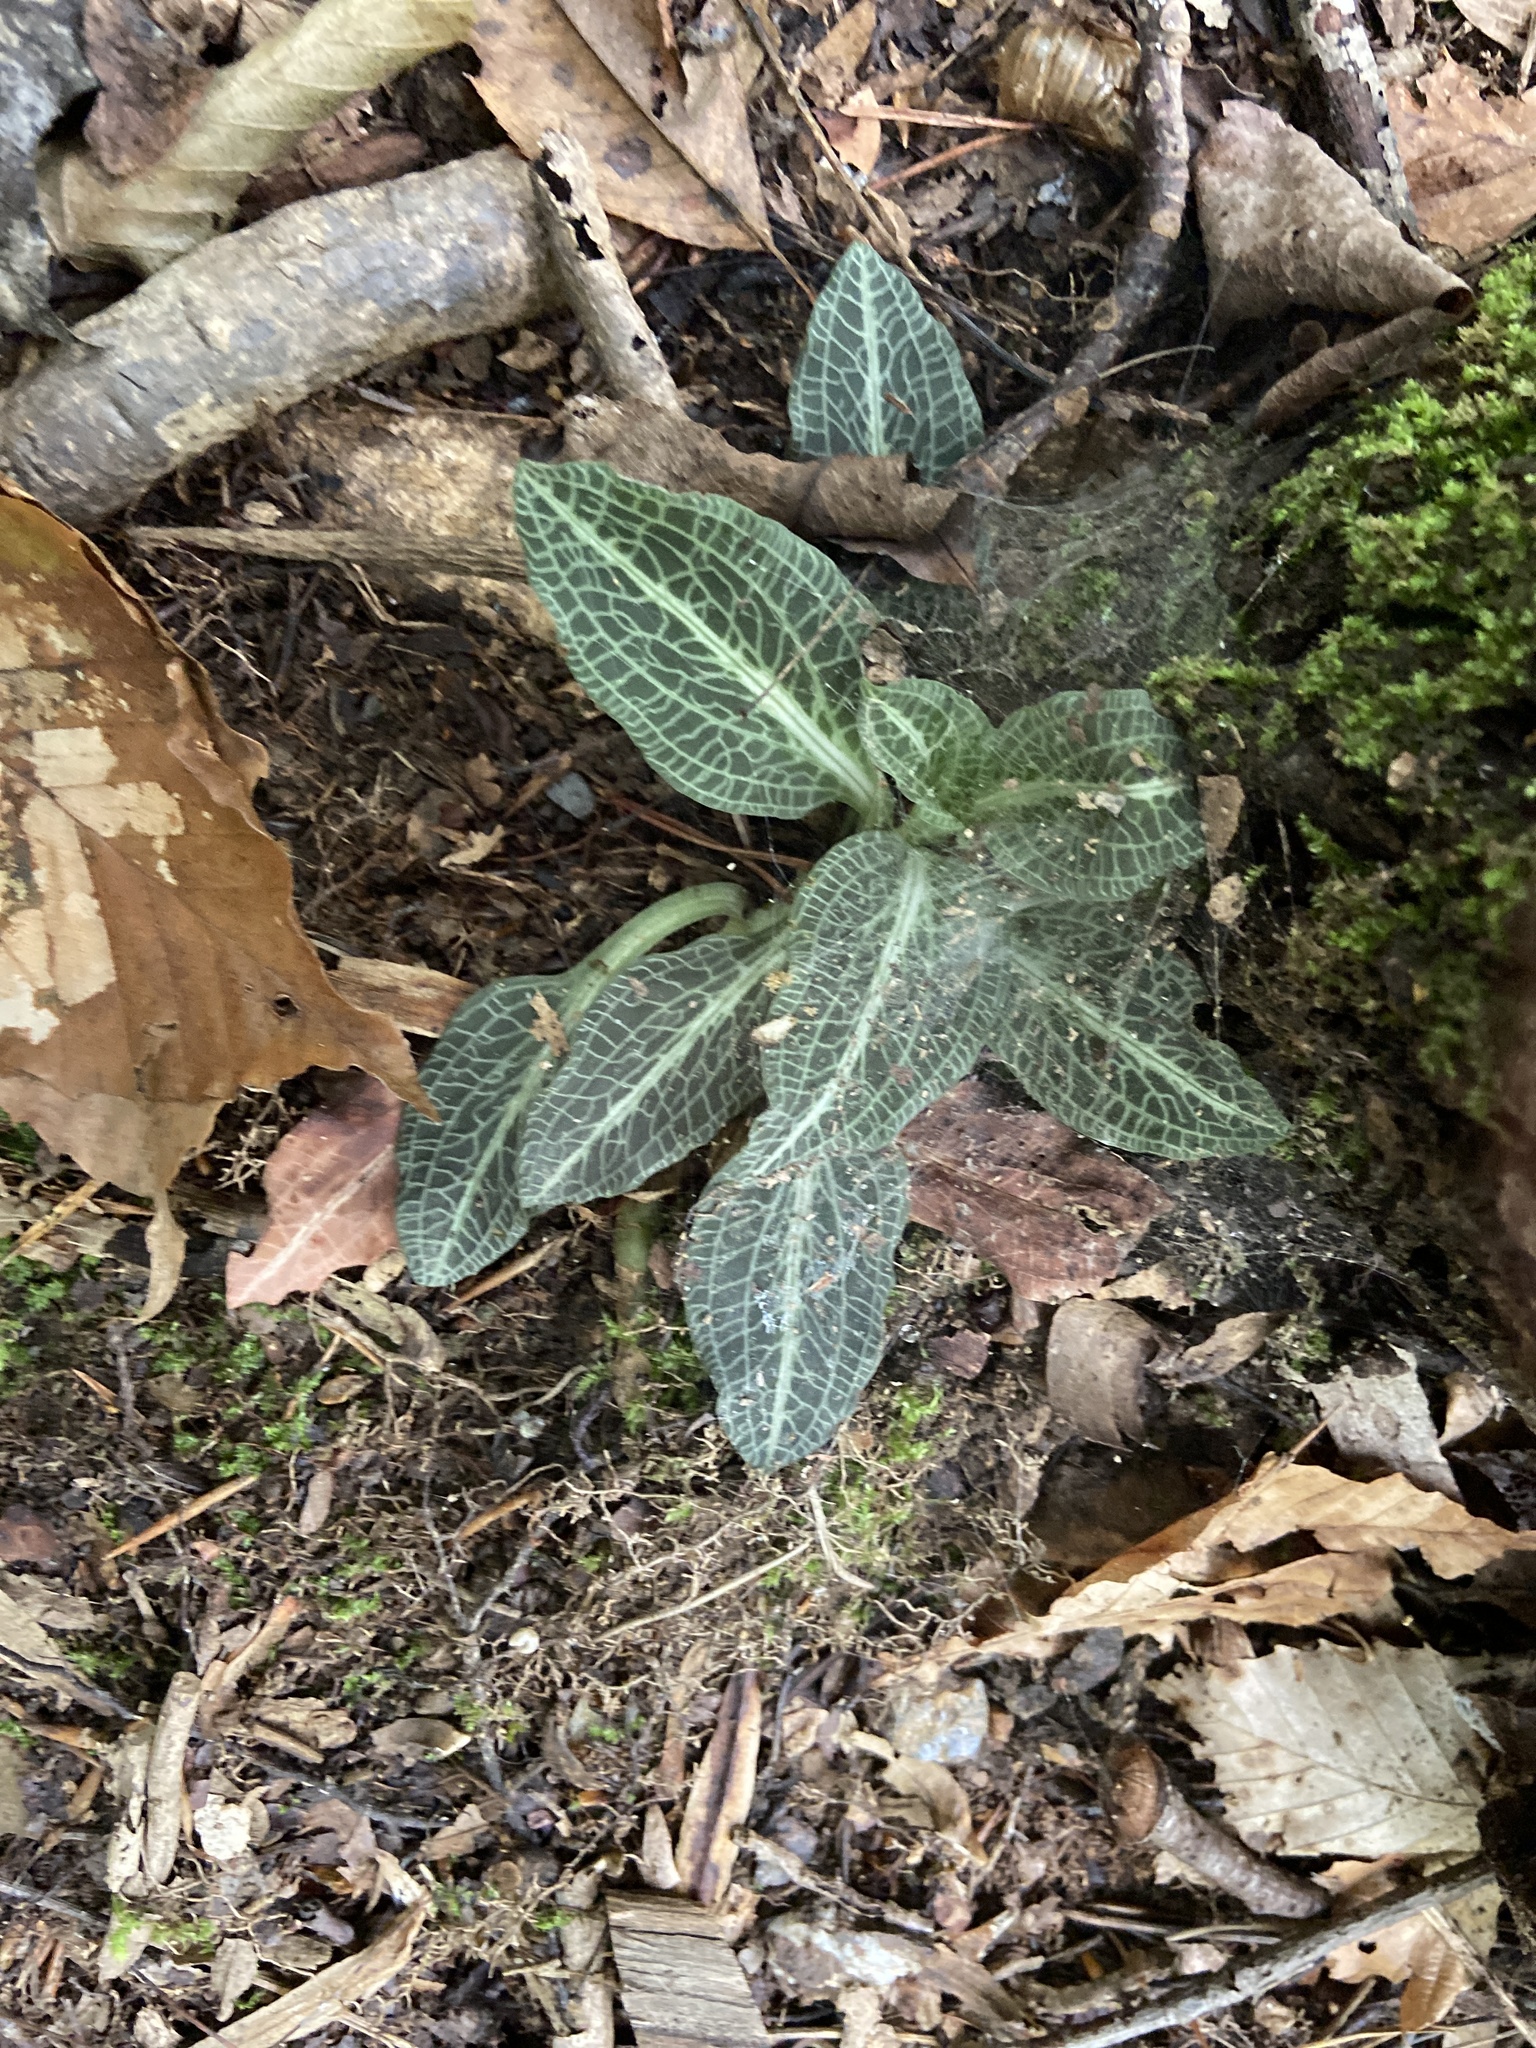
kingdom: Plantae
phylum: Tracheophyta
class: Liliopsida
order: Asparagales
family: Orchidaceae
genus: Goodyera
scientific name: Goodyera pubescens
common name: Downy rattlesnake-plantain
